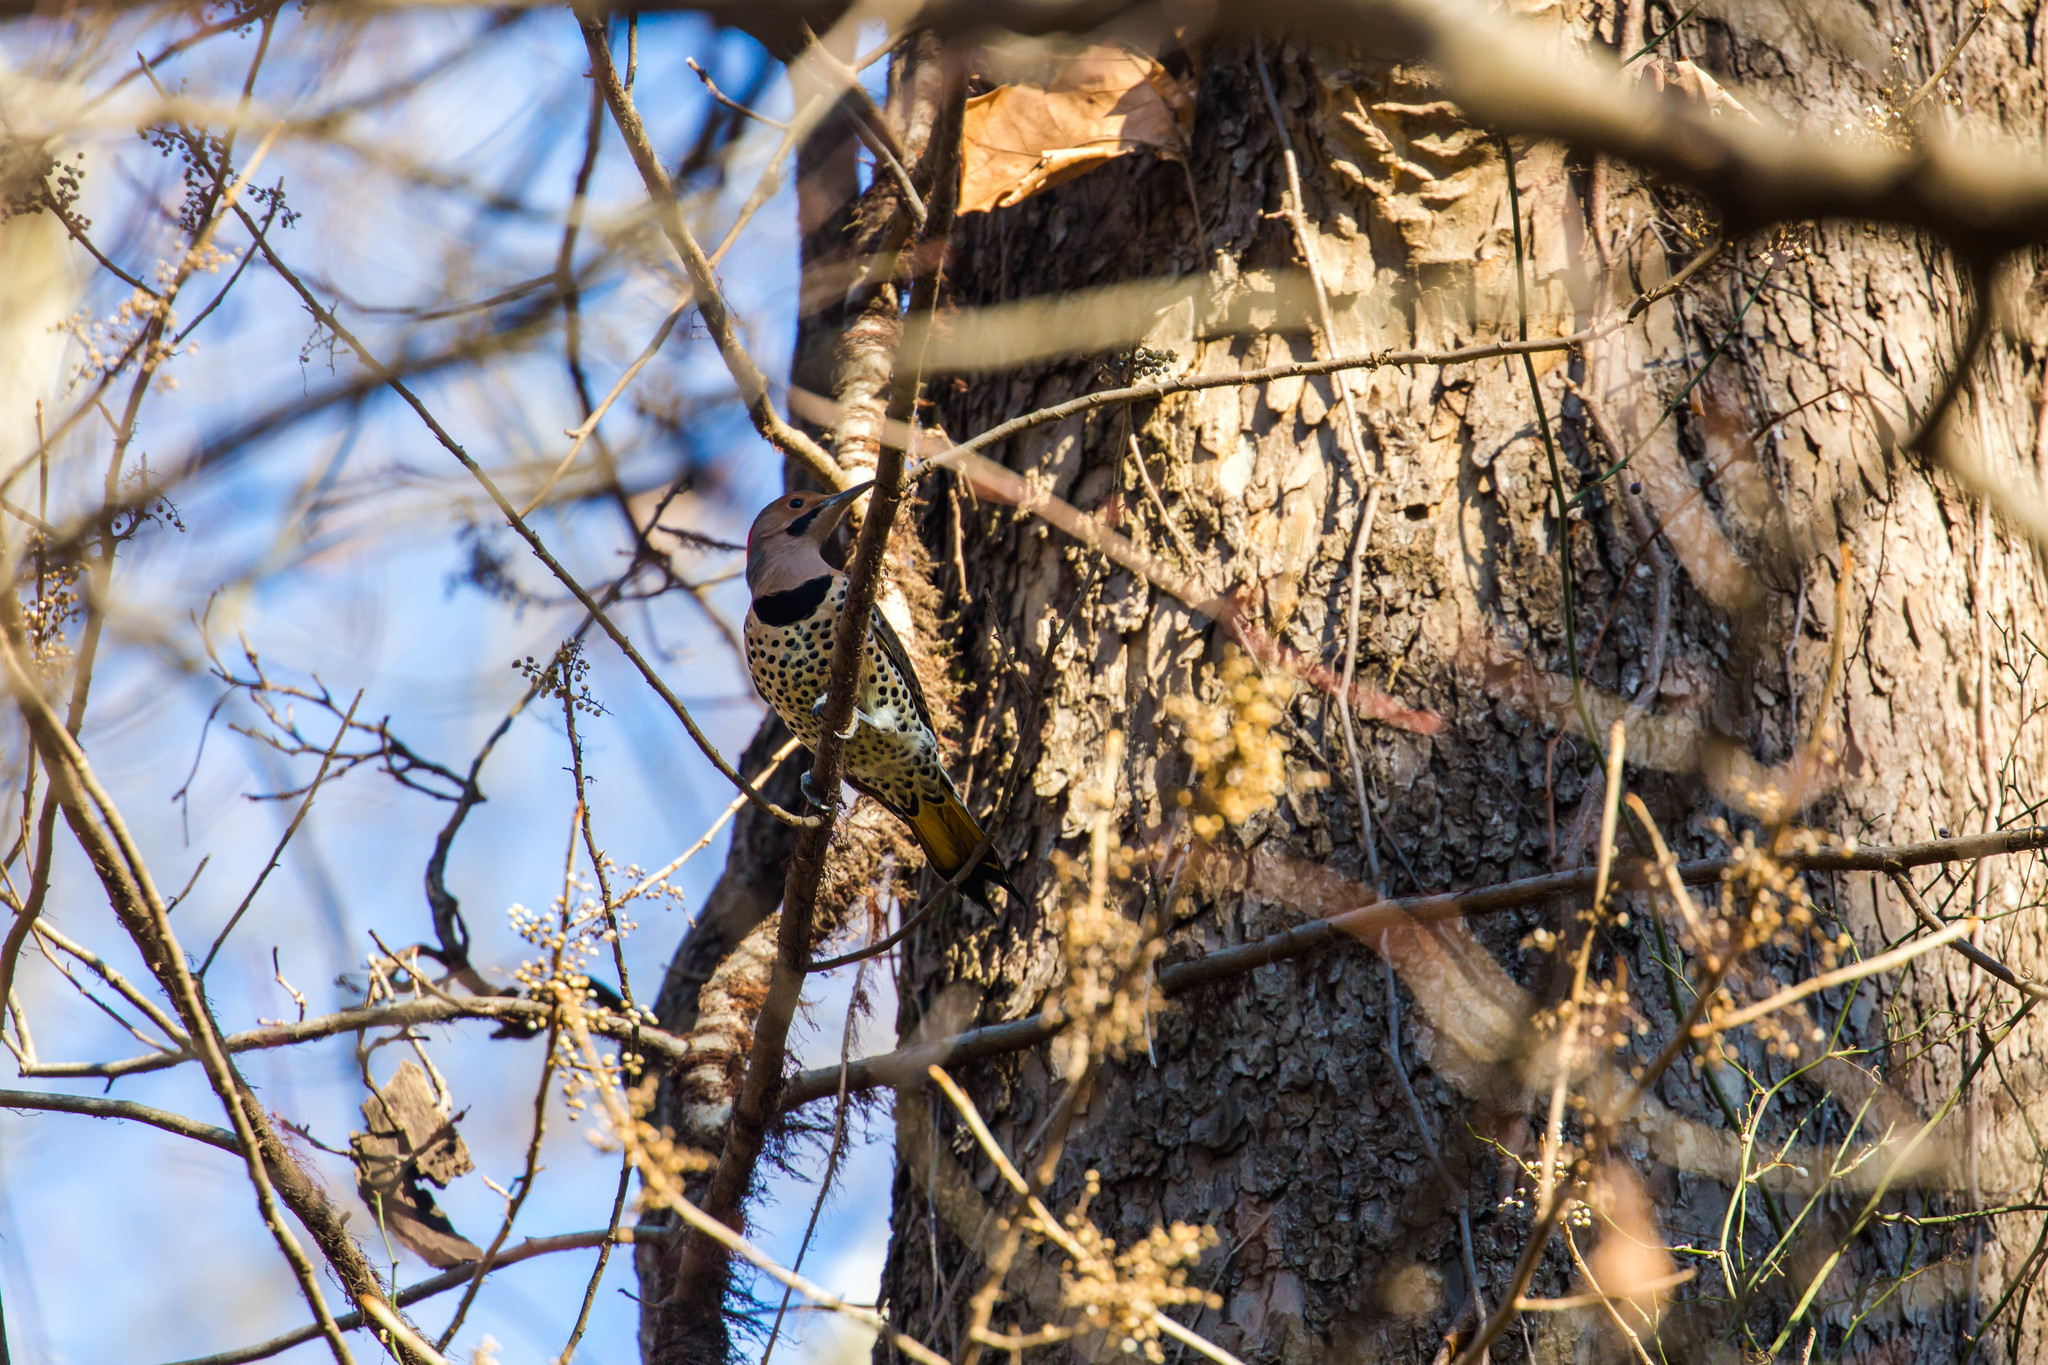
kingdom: Animalia
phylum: Chordata
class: Aves
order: Piciformes
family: Picidae
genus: Colaptes
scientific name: Colaptes auratus
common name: Northern flicker
